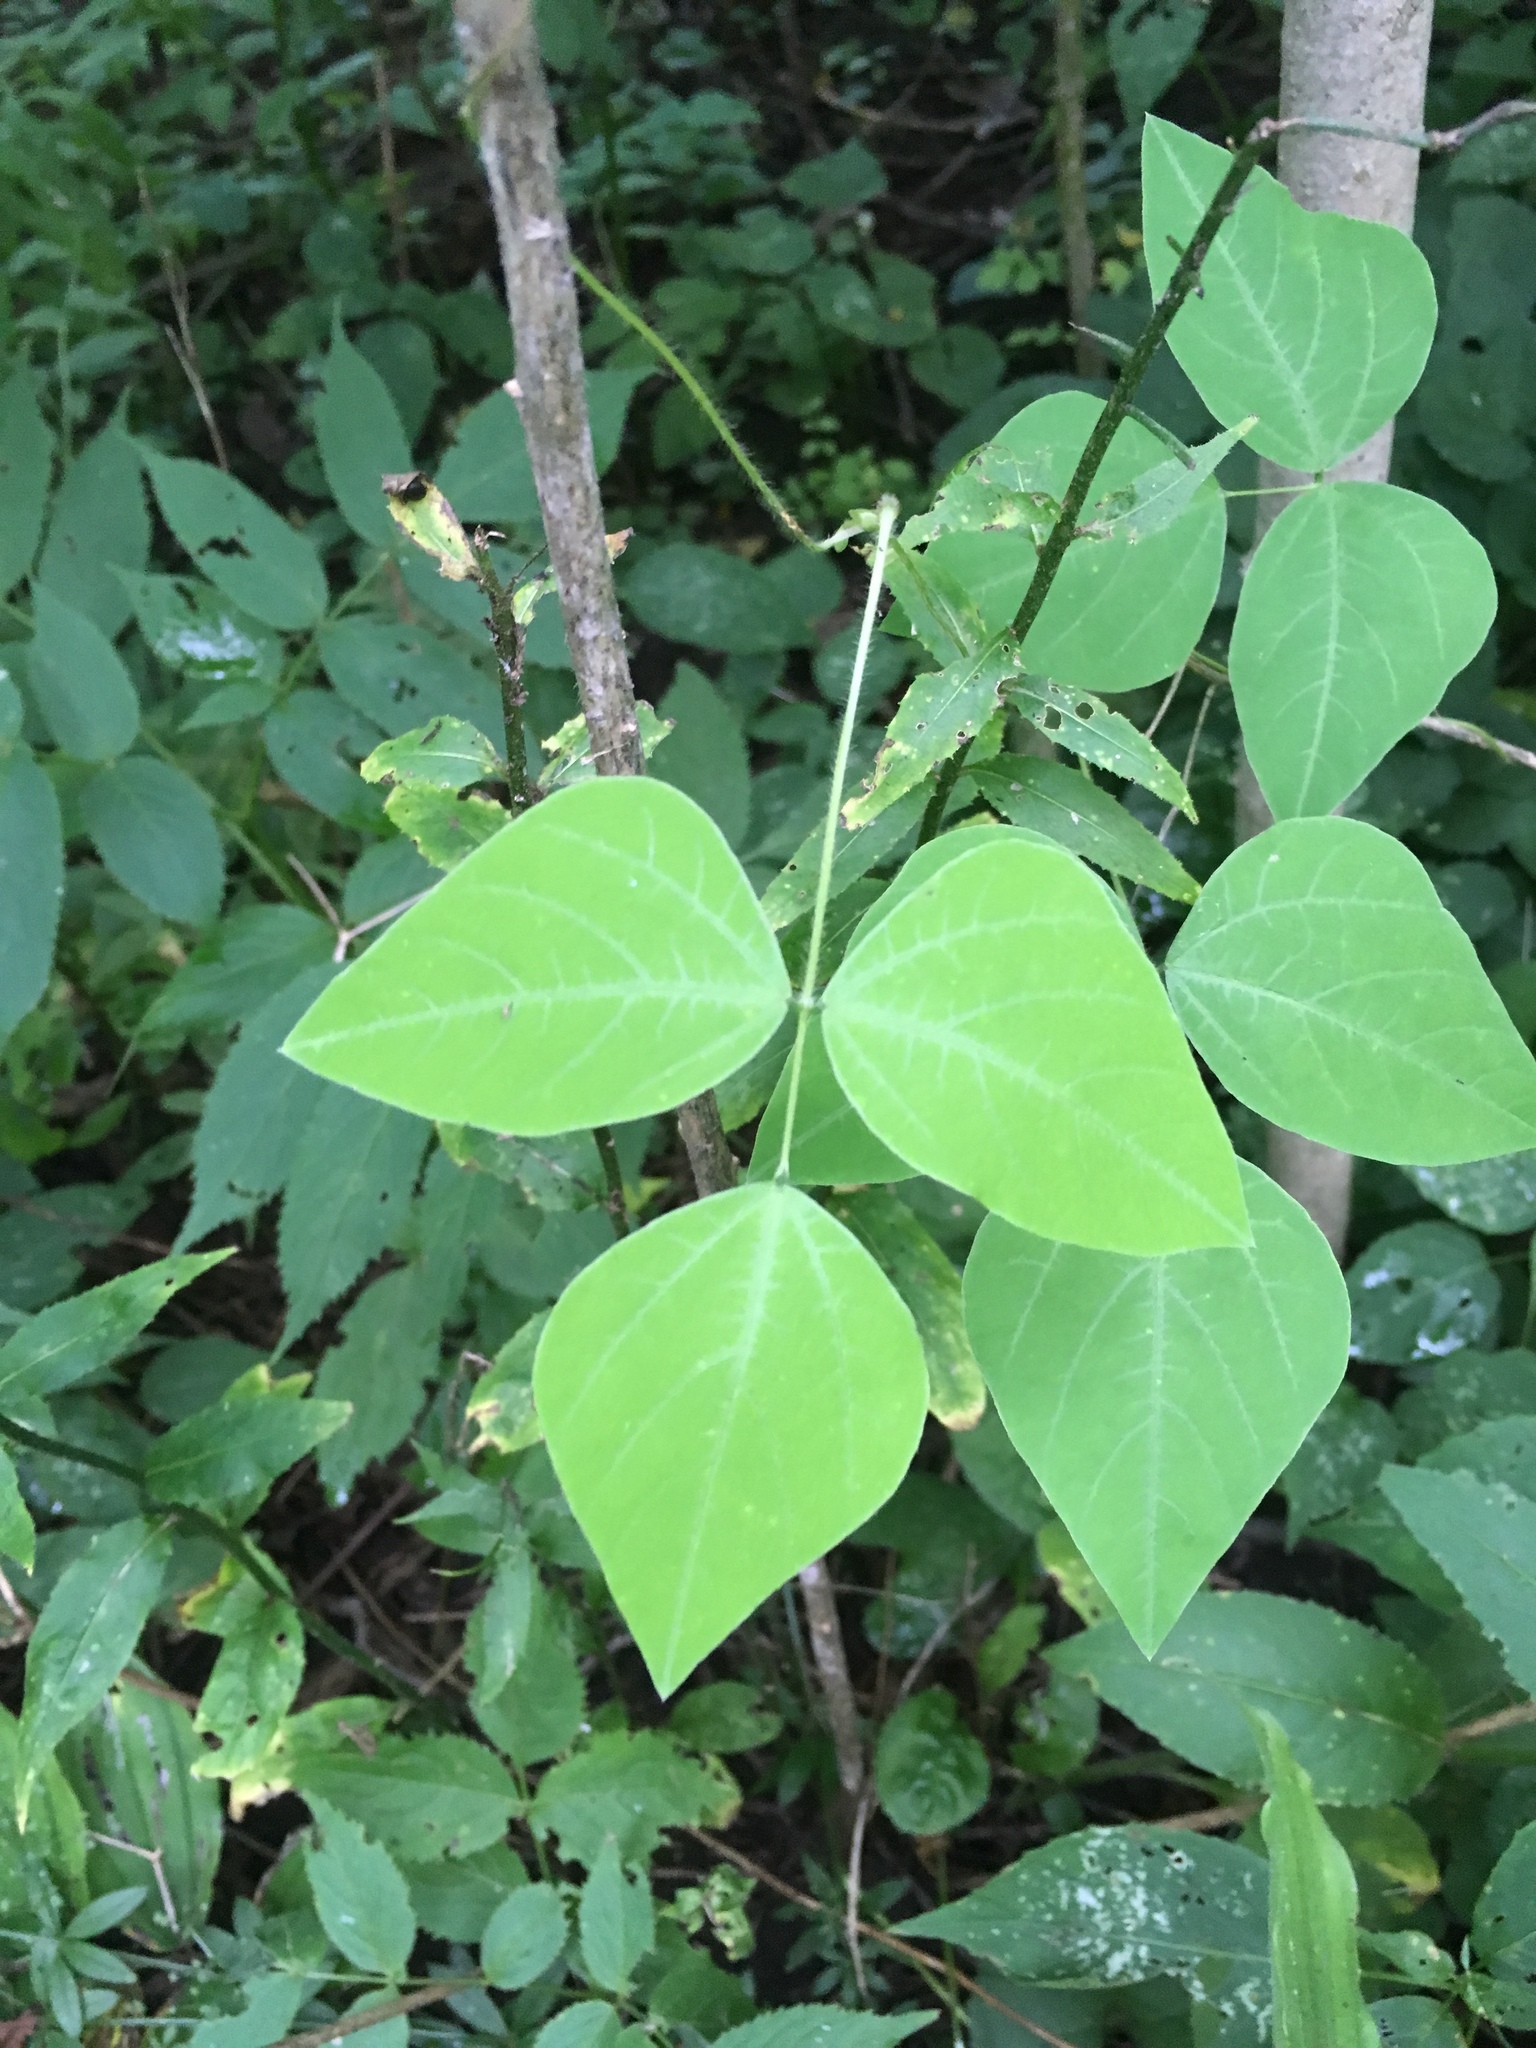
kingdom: Plantae
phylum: Tracheophyta
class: Magnoliopsida
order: Fabales
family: Fabaceae
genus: Amphicarpaea
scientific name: Amphicarpaea bracteata
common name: American hog peanut
